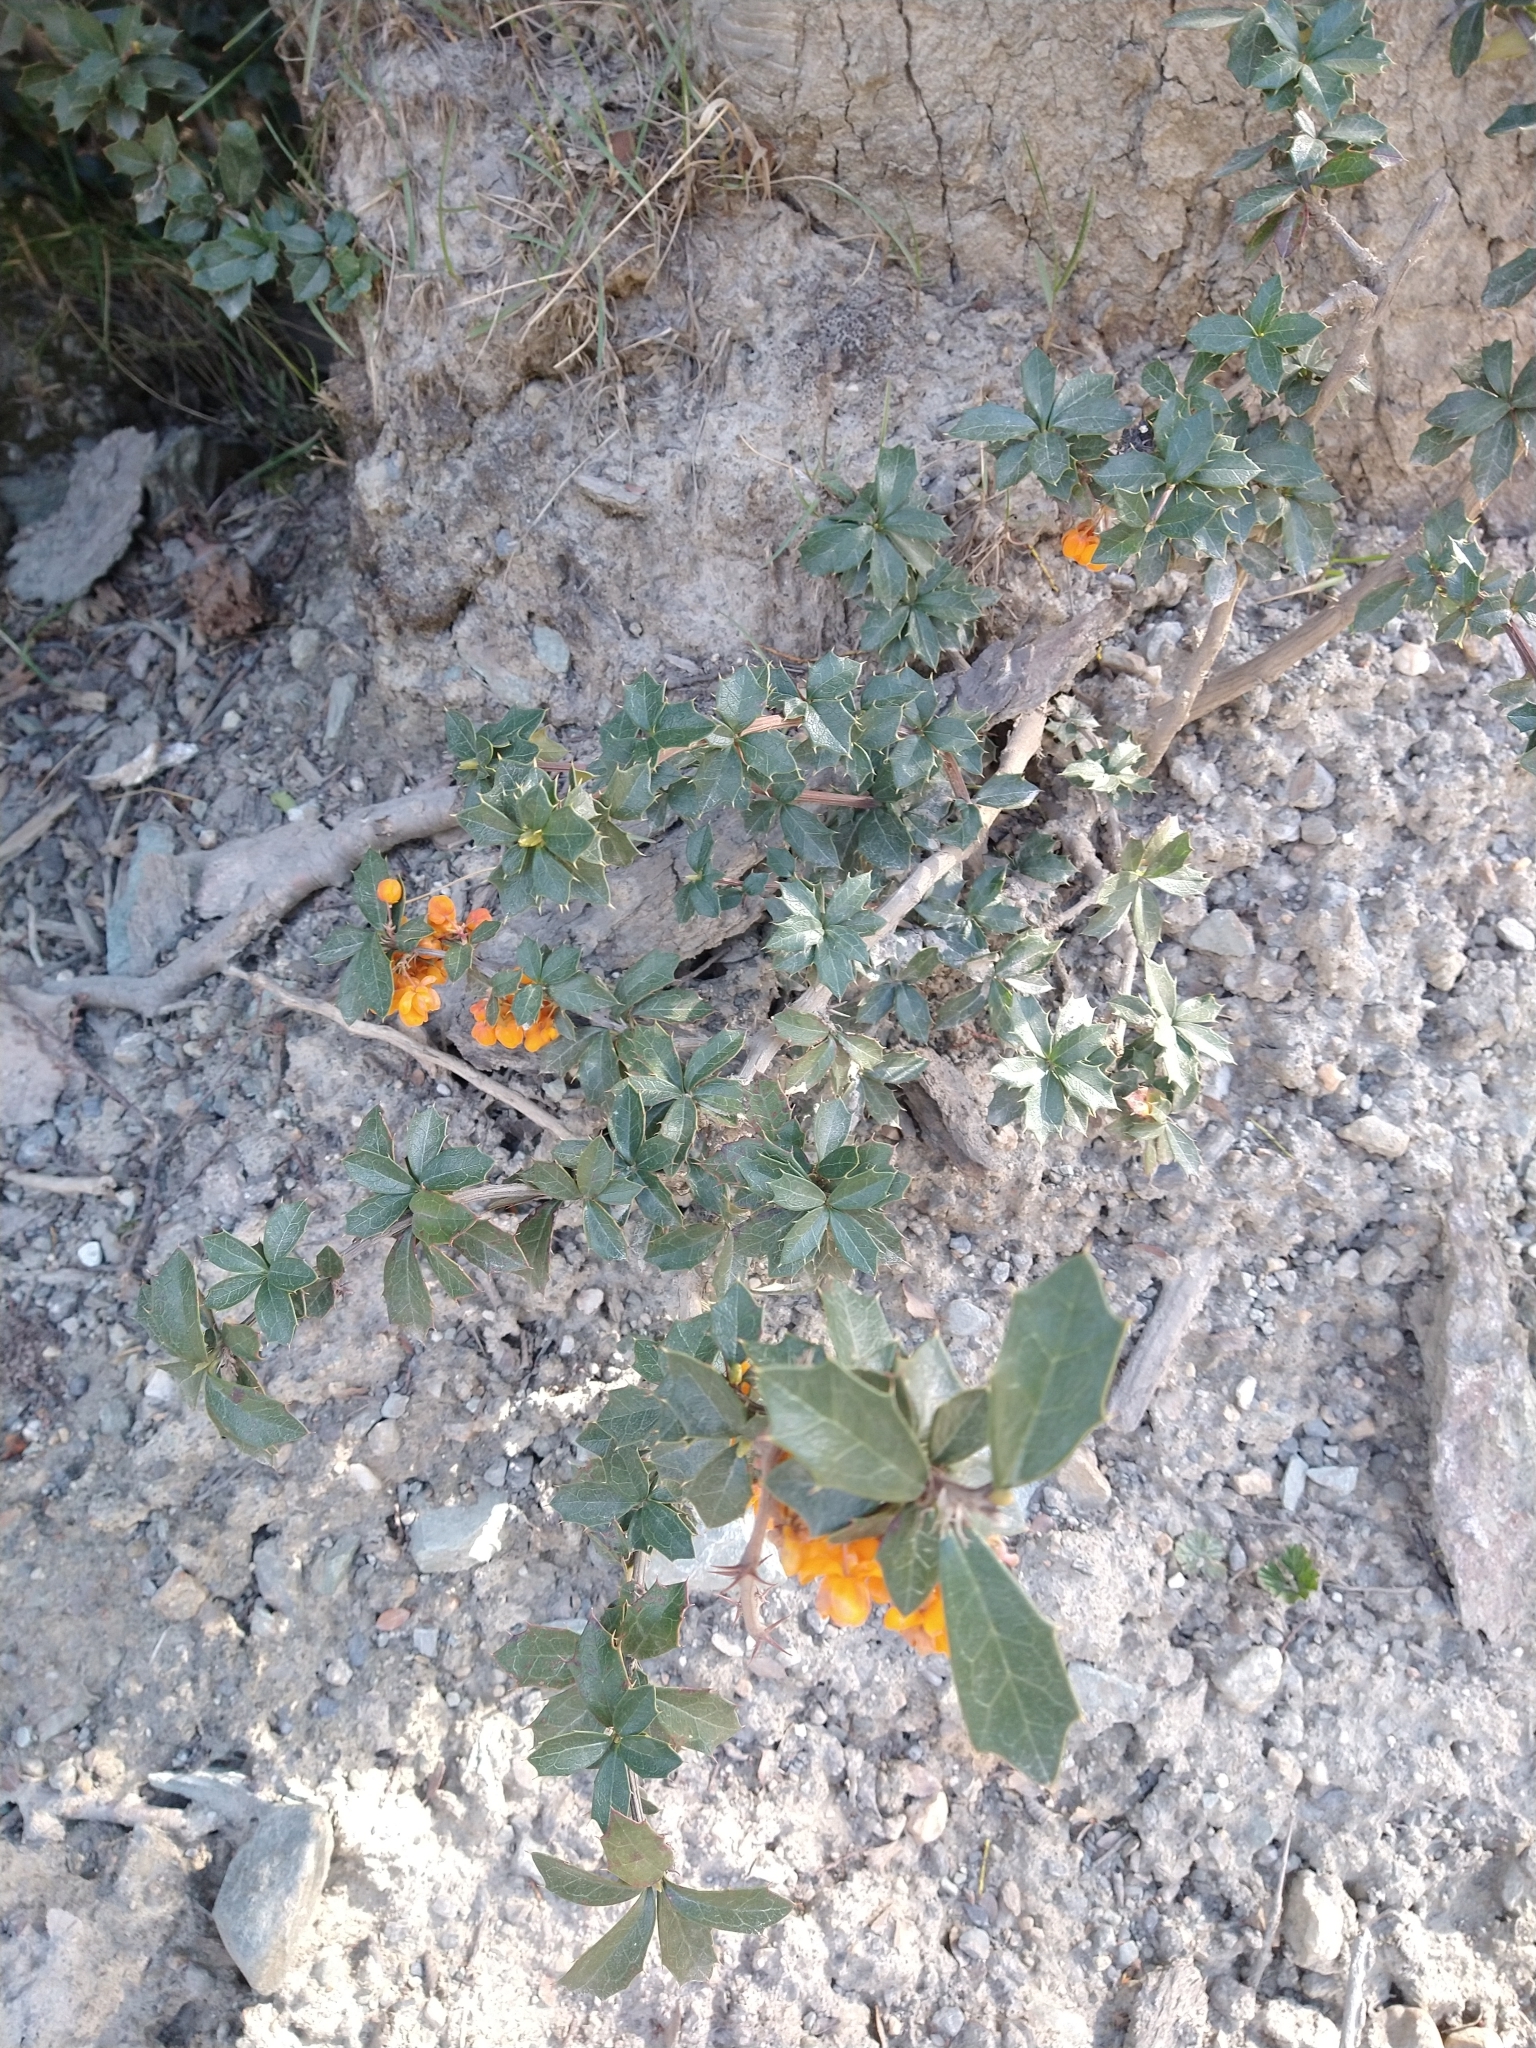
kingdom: Plantae
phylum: Tracheophyta
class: Magnoliopsida
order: Ranunculales
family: Berberidaceae
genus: Berberis
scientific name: Berberis ilicifolia
